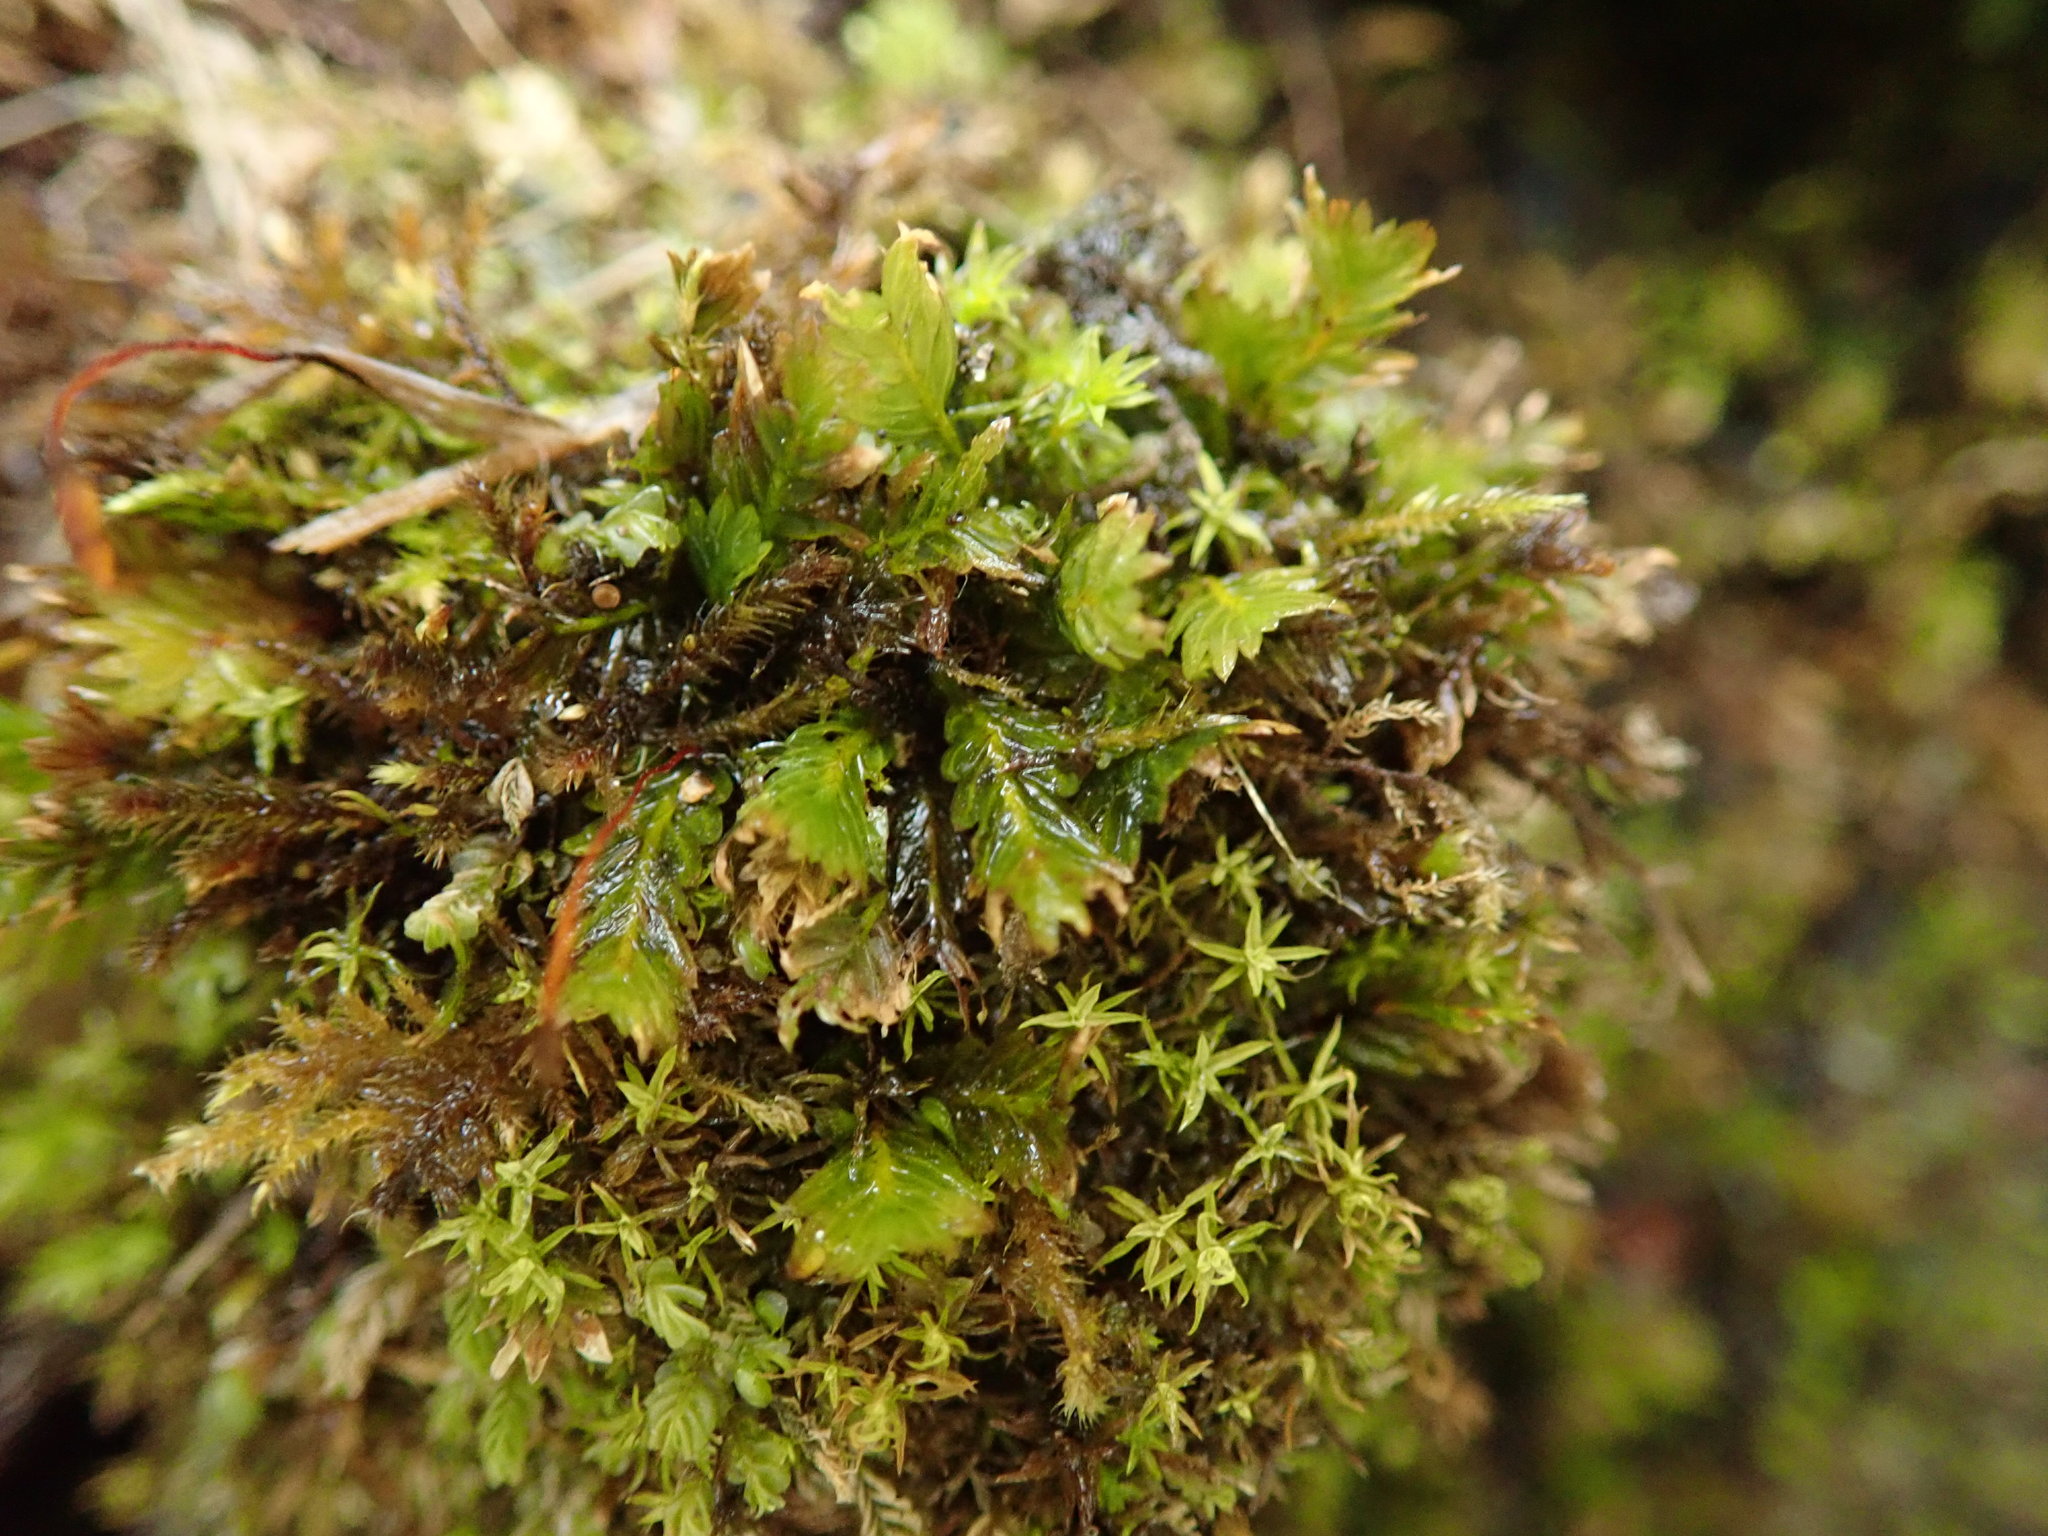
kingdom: Plantae
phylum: Bryophyta
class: Bryopsida
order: Dicranales
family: Fissidentaceae
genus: Fissidens
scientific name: Fissidens adianthoides
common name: Maidenhair pocket moss
